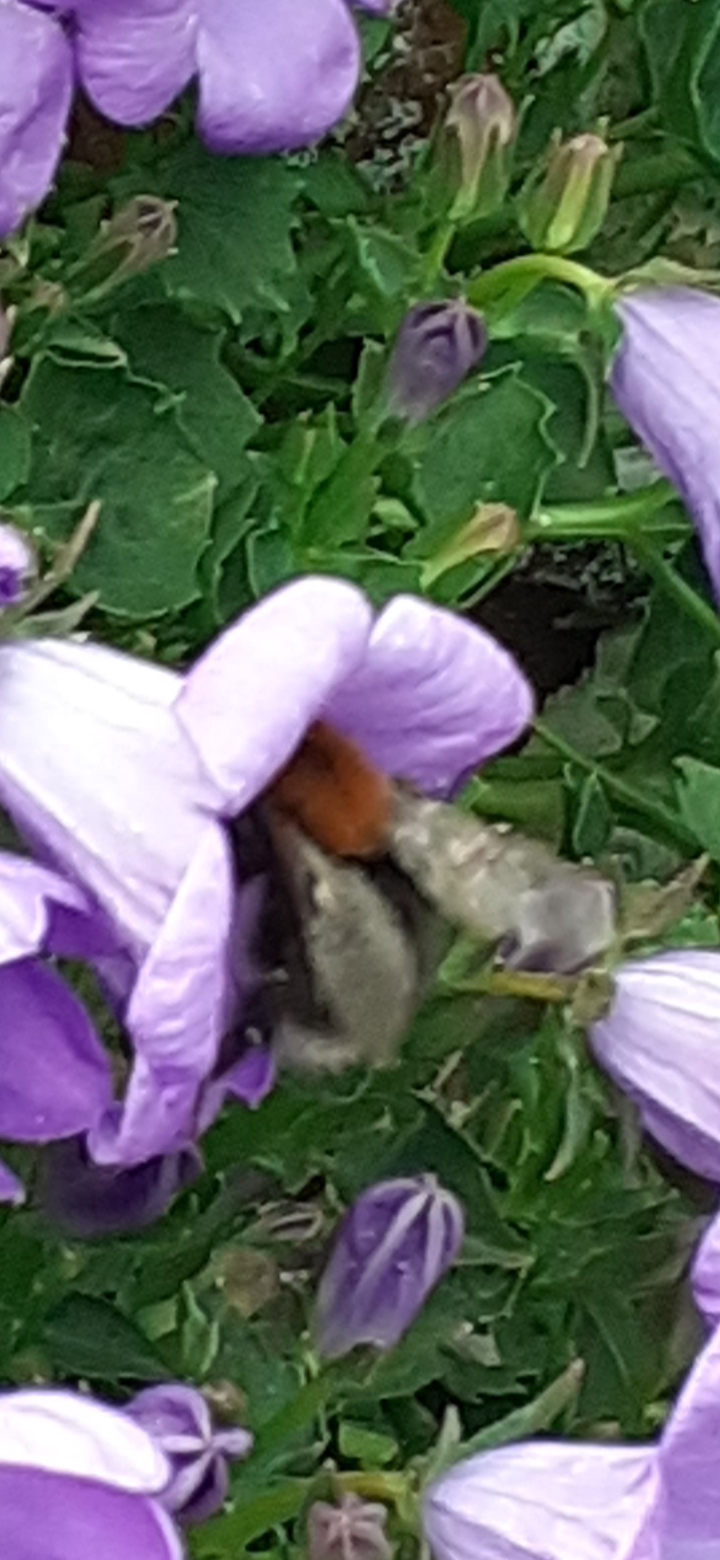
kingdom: Animalia
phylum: Arthropoda
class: Insecta
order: Hymenoptera
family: Apidae
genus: Bombus
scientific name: Bombus hypnorum
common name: New garden bumblebee
